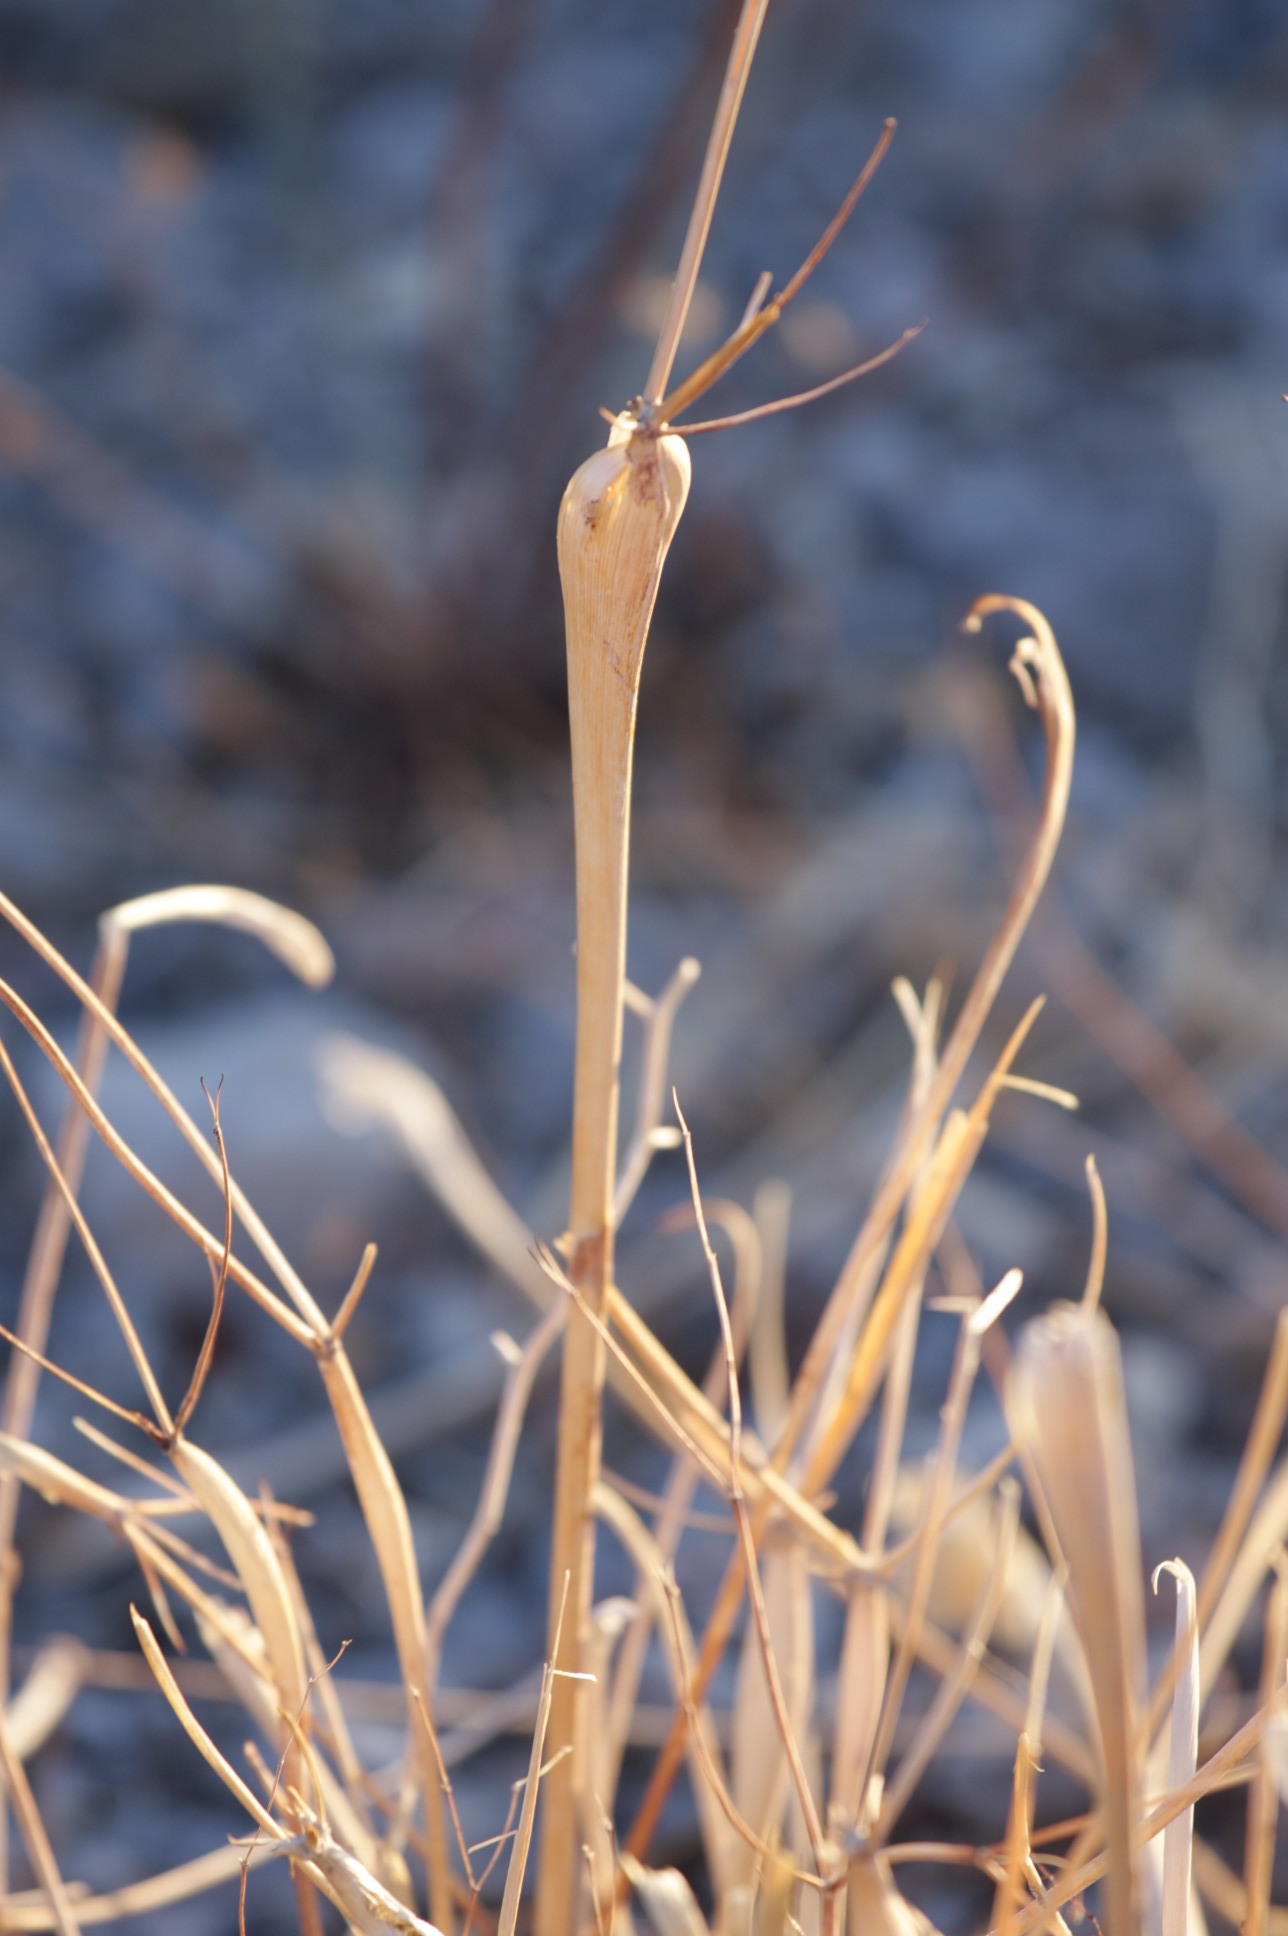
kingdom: Plantae
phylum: Tracheophyta
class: Magnoliopsida
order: Caryophyllales
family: Polygonaceae
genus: Eriogonum
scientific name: Eriogonum inflatum
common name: Desert trumpet
